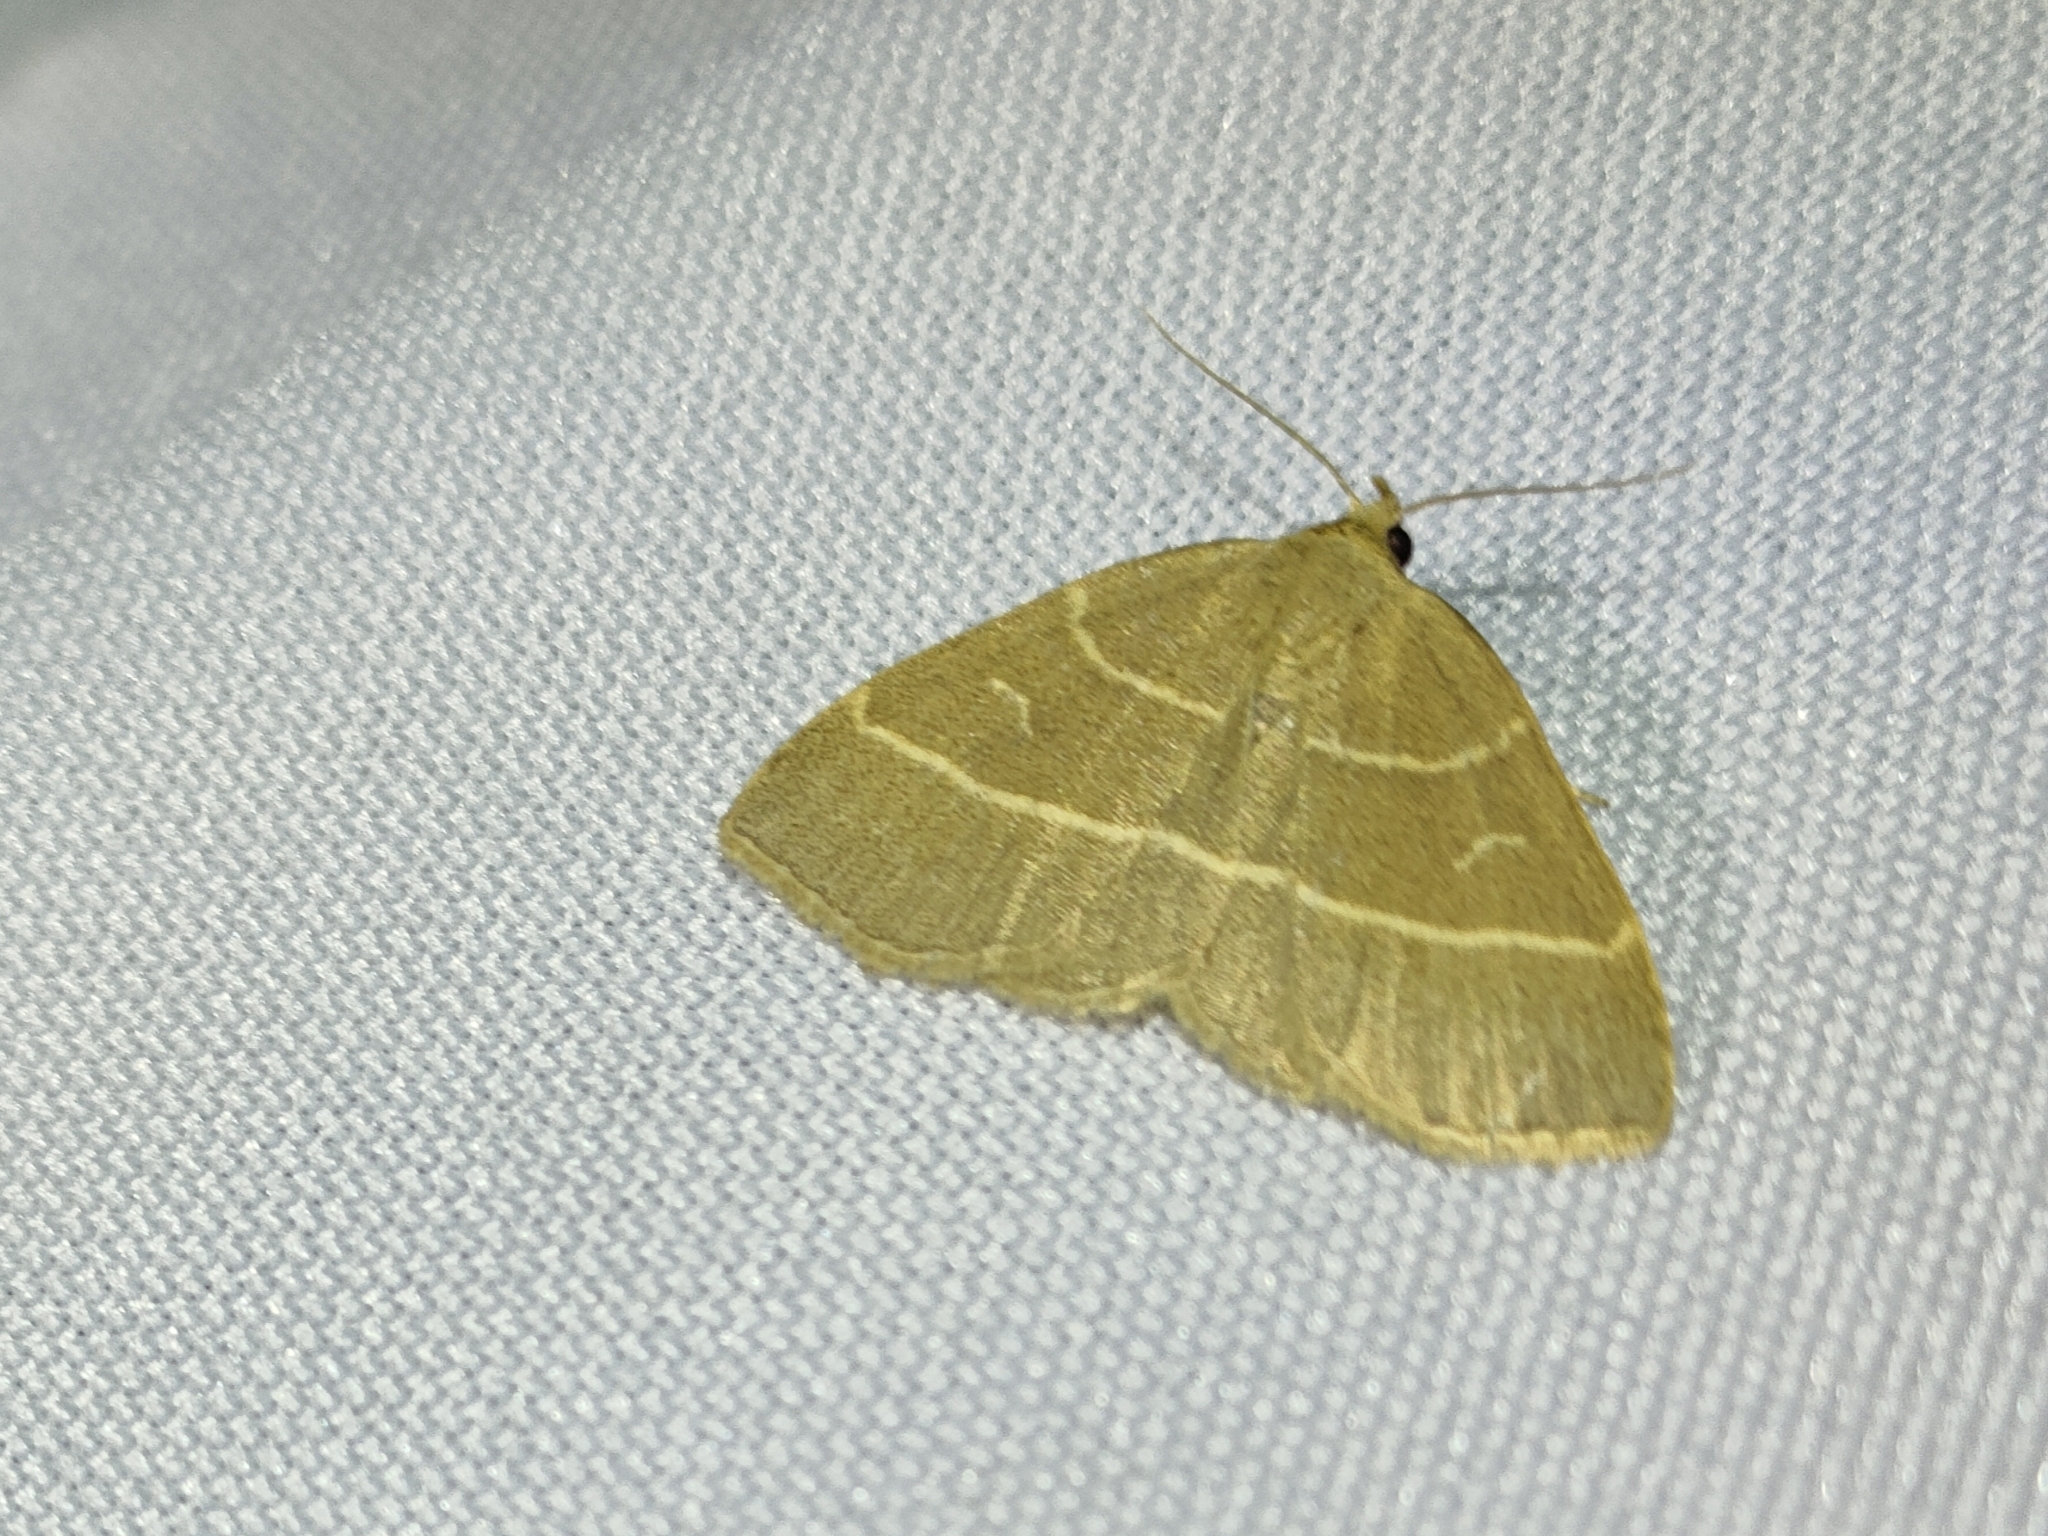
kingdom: Animalia
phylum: Arthropoda
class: Insecta
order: Lepidoptera
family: Erebidae
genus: Trisateles
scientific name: Trisateles emortualis
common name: Olive crescent
